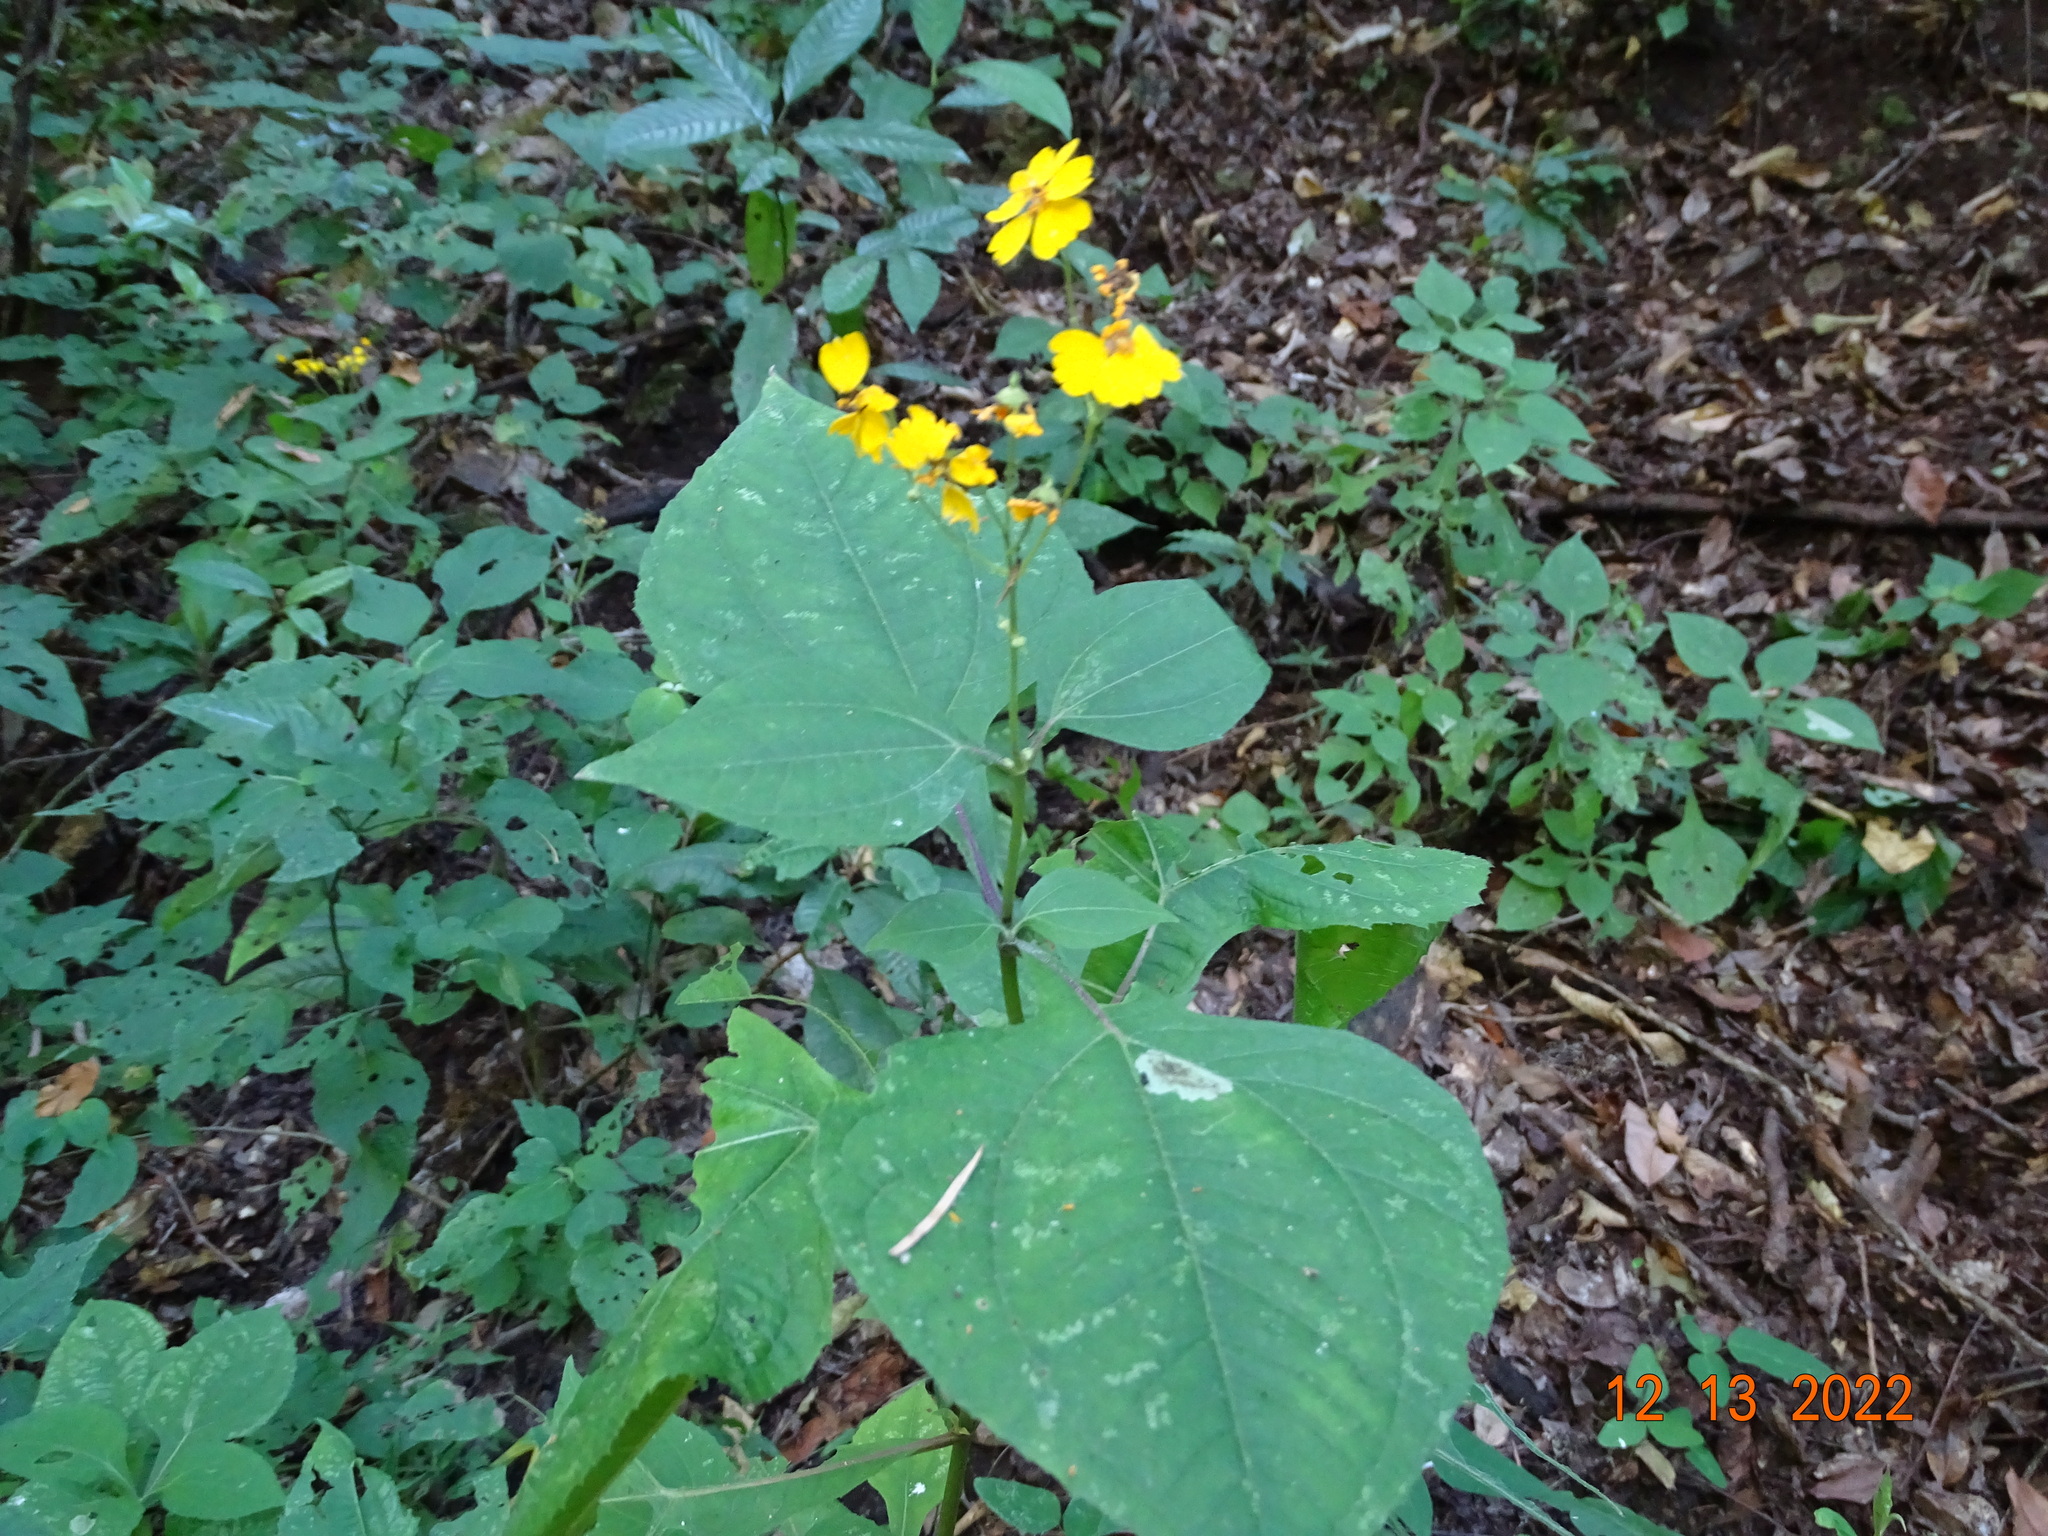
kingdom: Plantae
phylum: Tracheophyta
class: Magnoliopsida
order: Asterales
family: Asteraceae
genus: Trigonospermum
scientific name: Trigonospermum melampodioides
